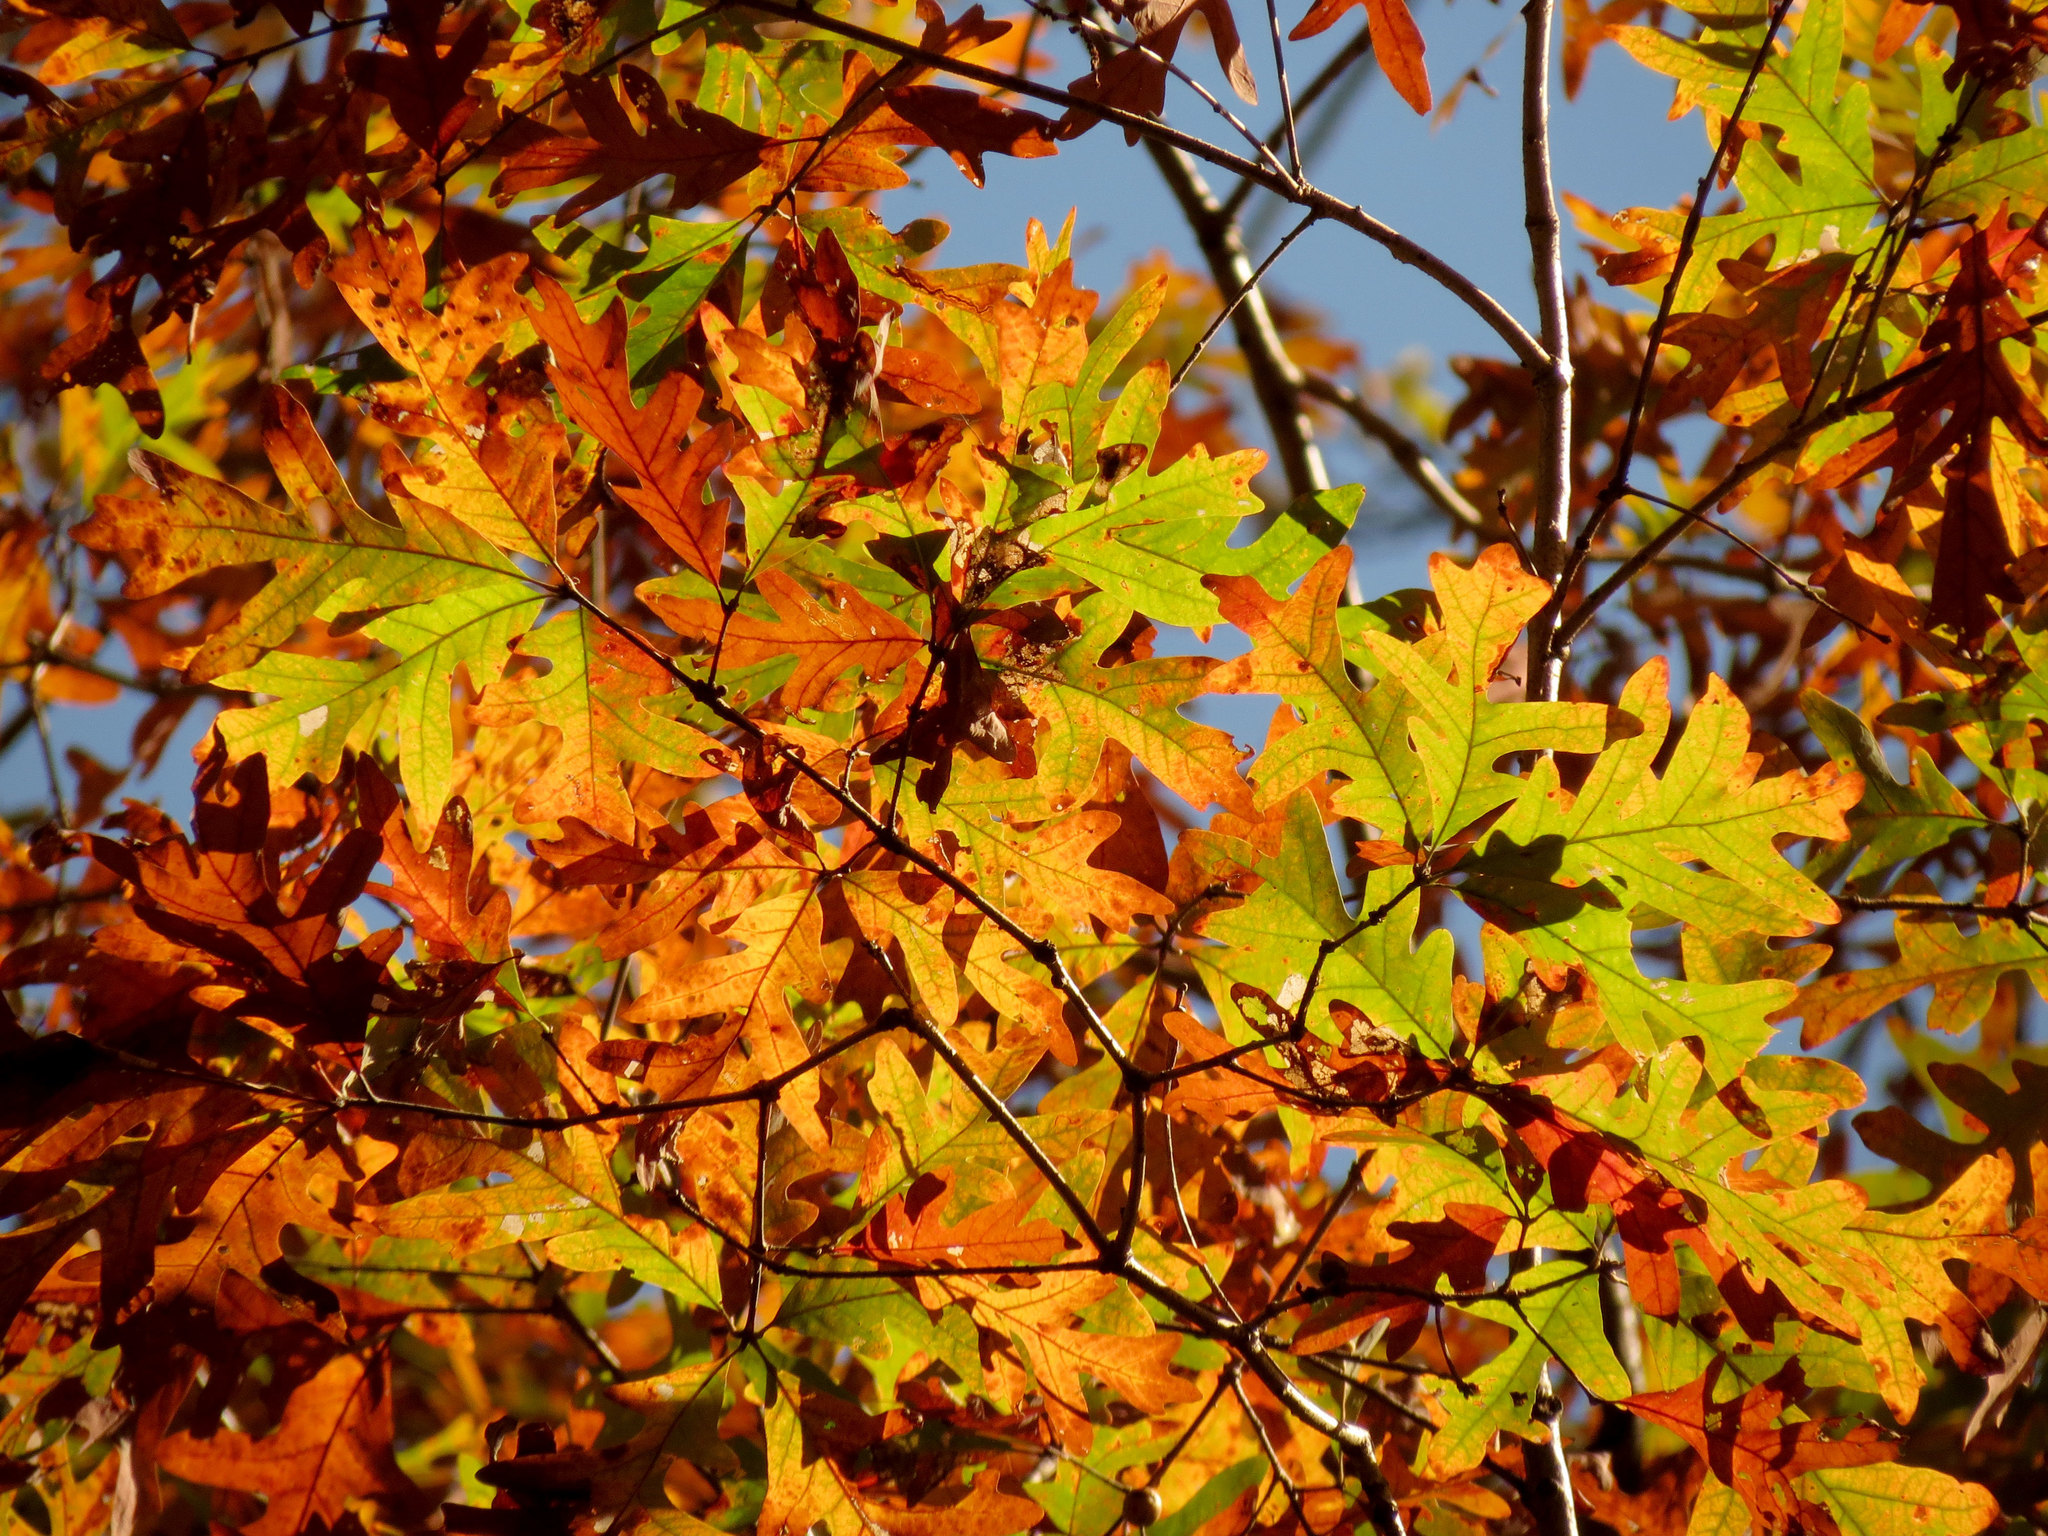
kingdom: Plantae
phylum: Tracheophyta
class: Magnoliopsida
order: Fagales
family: Fagaceae
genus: Quercus
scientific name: Quercus alba
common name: White oak
